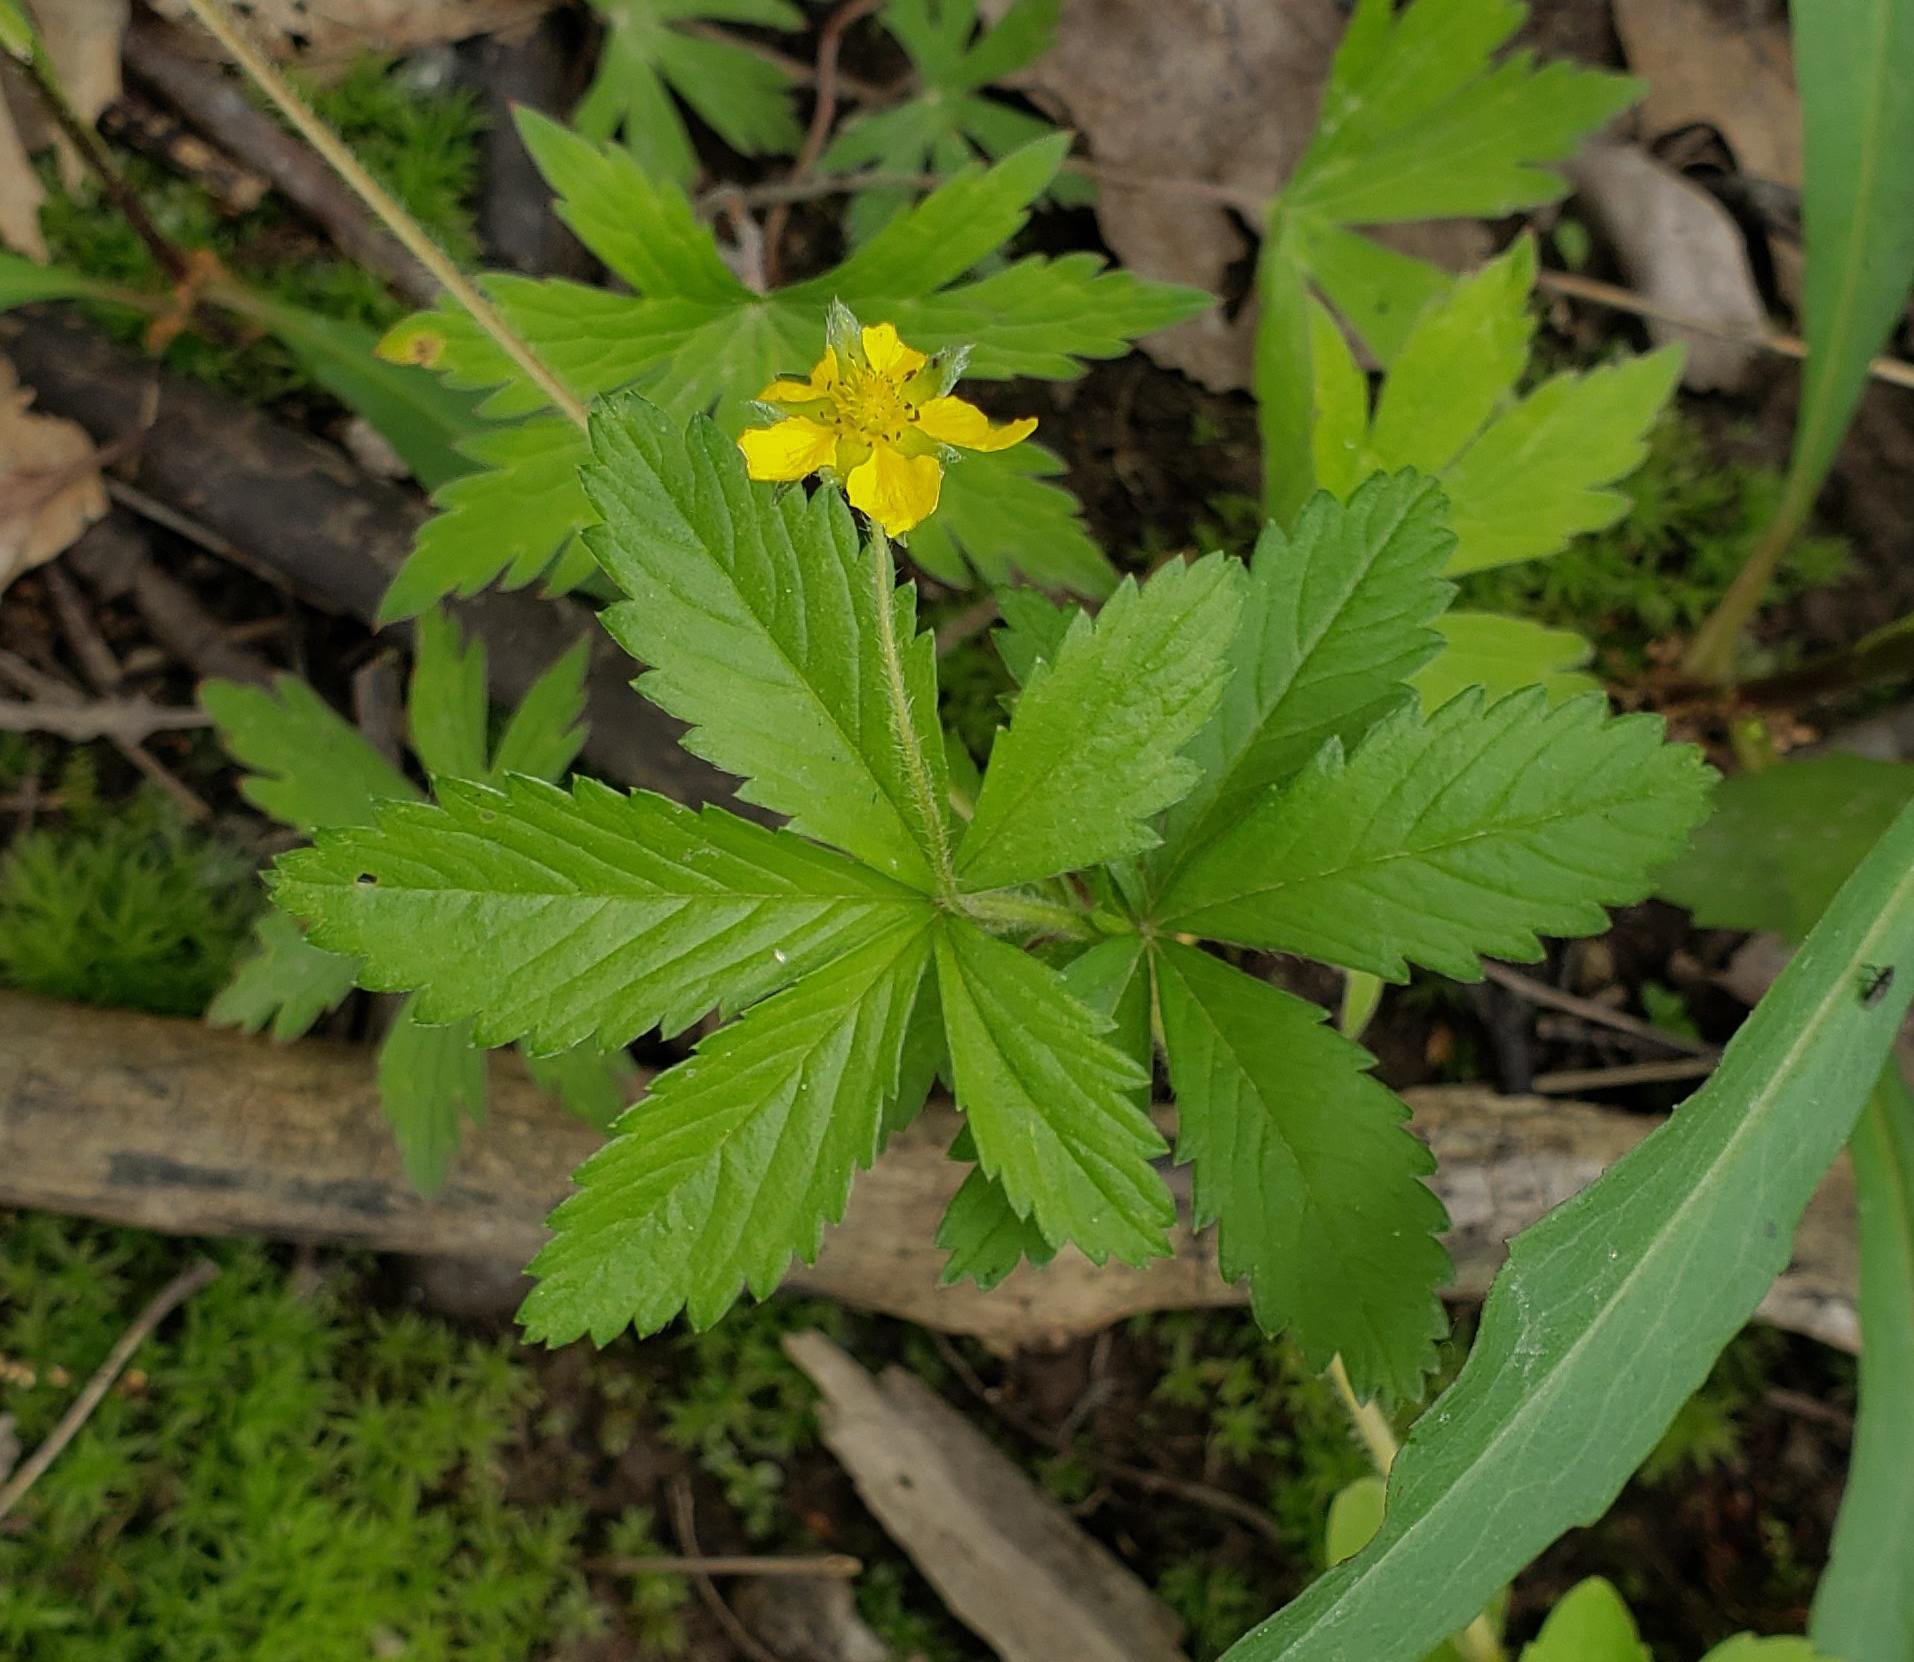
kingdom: Plantae
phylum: Tracheophyta
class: Magnoliopsida
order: Rosales
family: Rosaceae
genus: Potentilla
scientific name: Potentilla simplex
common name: Old field cinquefoil
